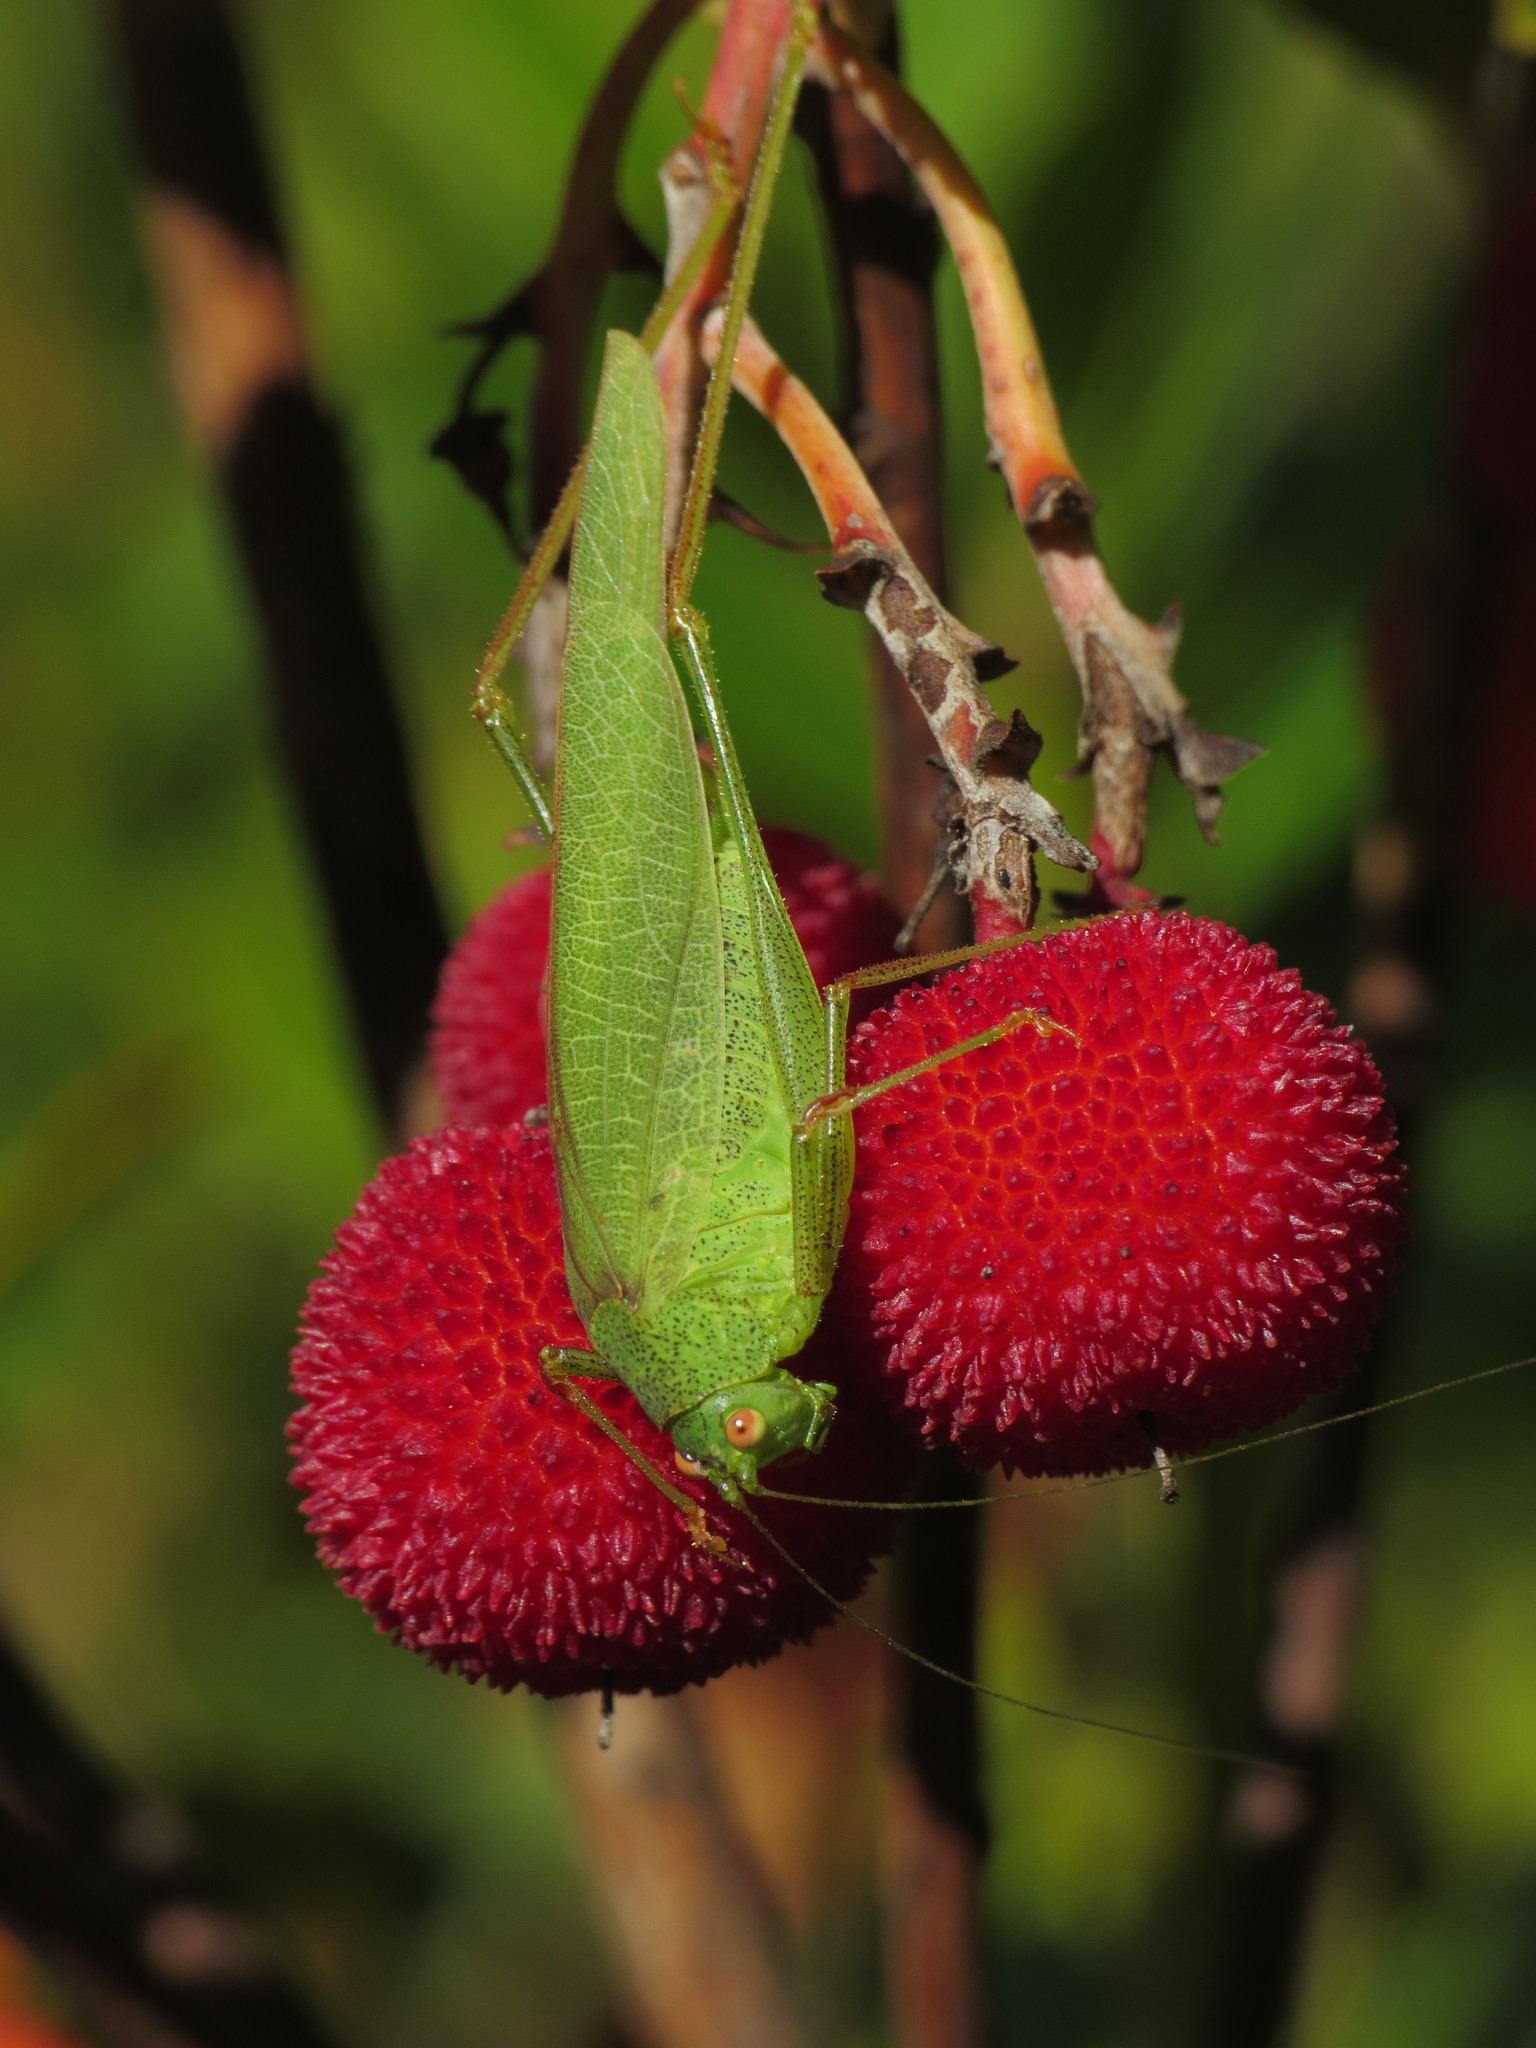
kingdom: Animalia
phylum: Arthropoda
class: Insecta
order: Orthoptera
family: Tettigoniidae
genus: Phaneroptera
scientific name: Phaneroptera nana
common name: Southern sickle bush-cricket
